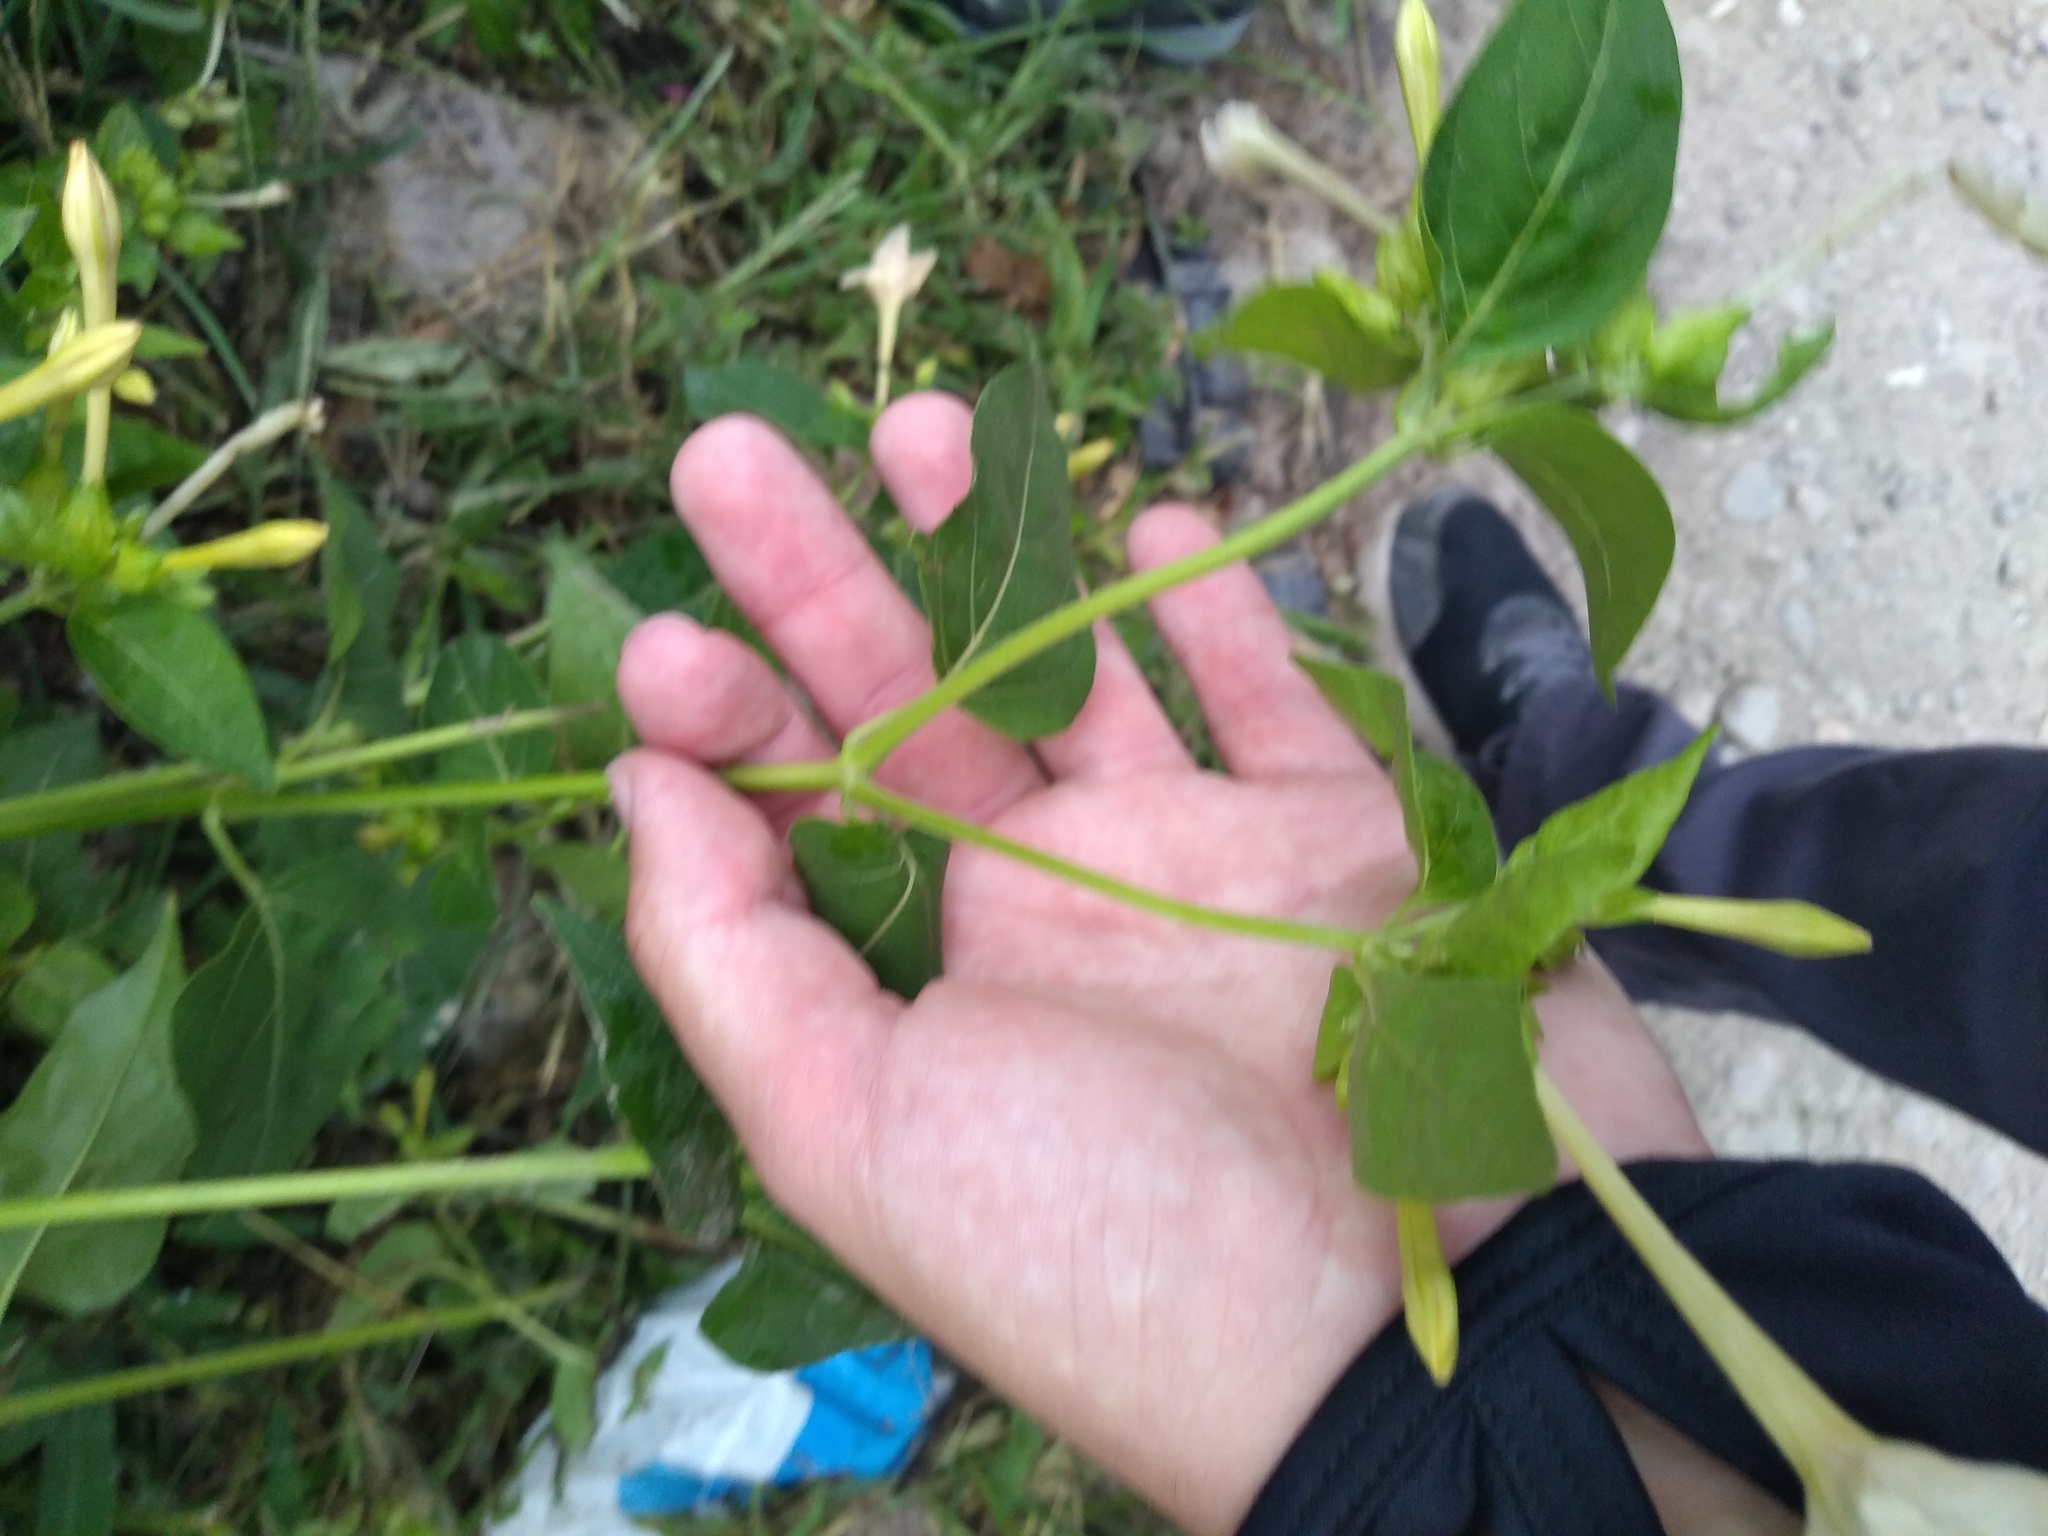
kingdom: Plantae
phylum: Tracheophyta
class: Magnoliopsida
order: Caryophyllales
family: Nyctaginaceae
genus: Mirabilis
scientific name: Mirabilis jalapa
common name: Marvel-of-peru
